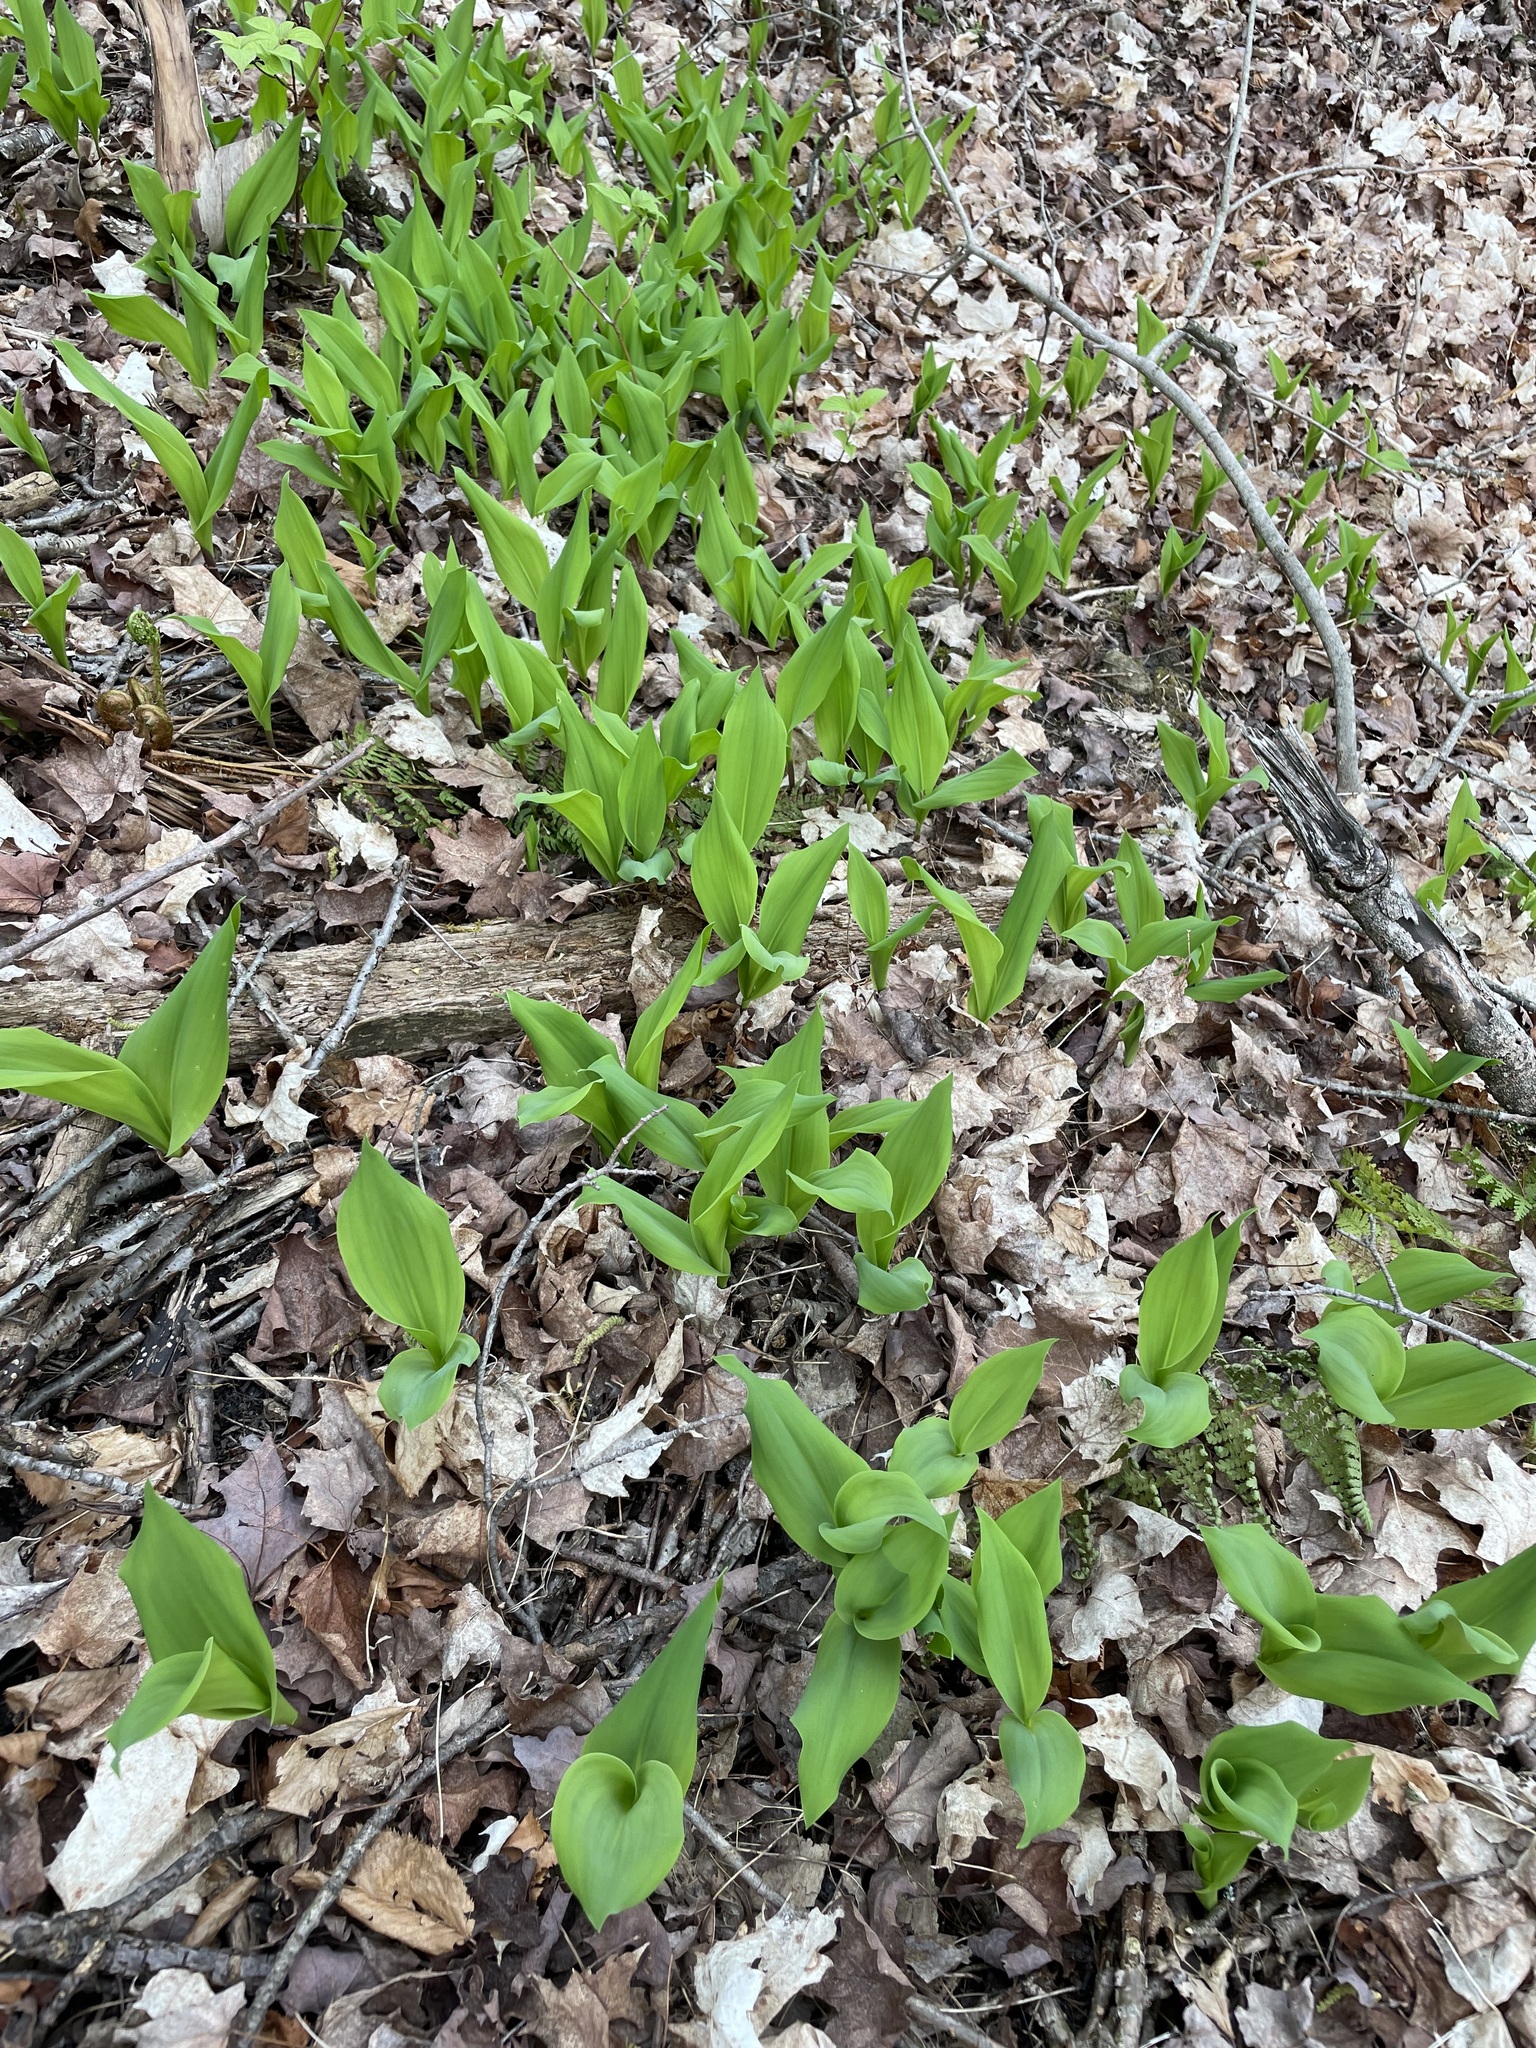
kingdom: Plantae
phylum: Tracheophyta
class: Liliopsida
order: Asparagales
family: Asparagaceae
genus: Convallaria
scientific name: Convallaria majalis
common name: Lily-of-the-valley
